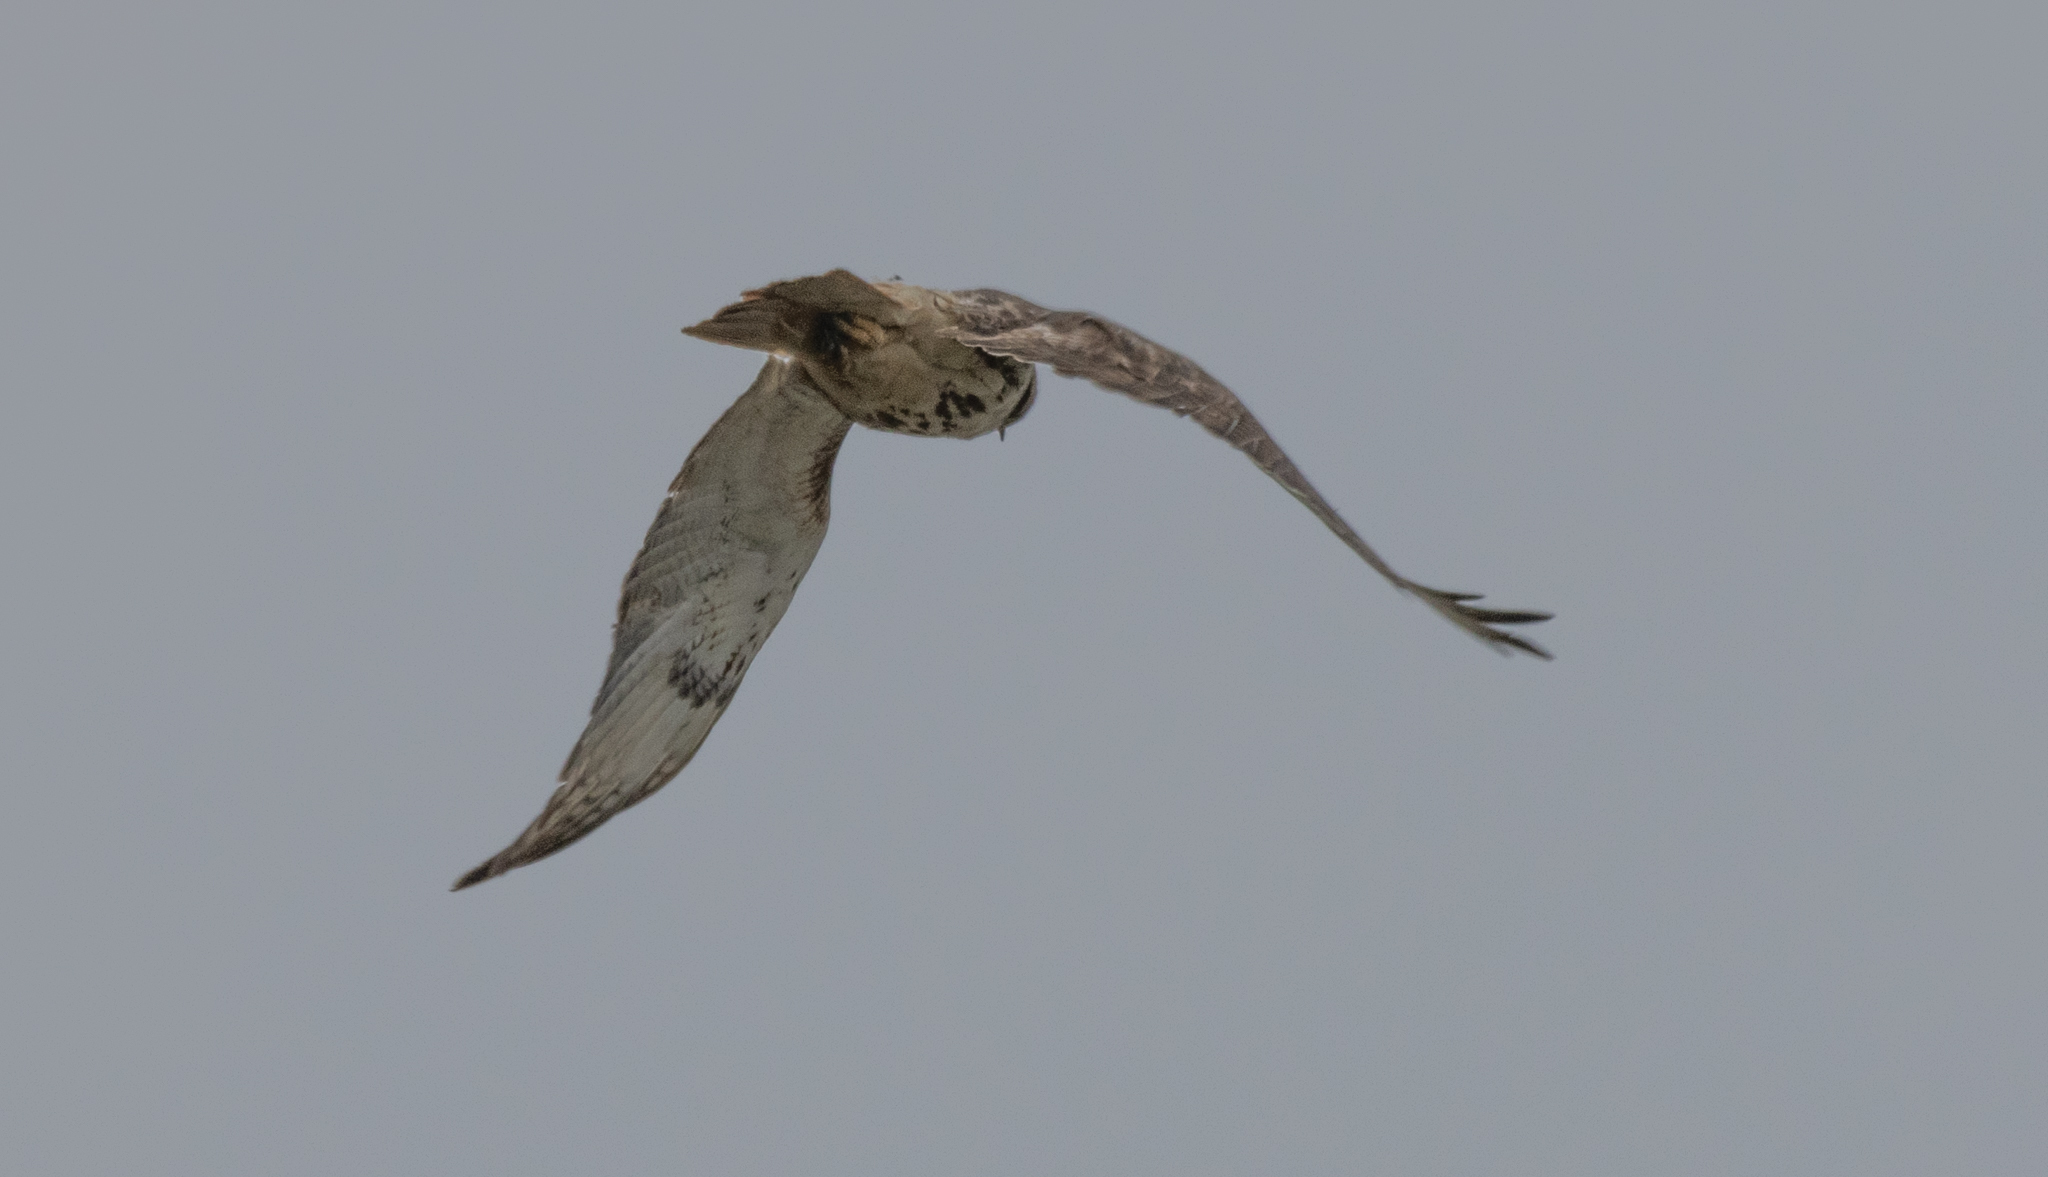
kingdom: Animalia
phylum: Chordata
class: Aves
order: Accipitriformes
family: Accipitridae
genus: Buteo
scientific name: Buteo jamaicensis
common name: Red-tailed hawk
